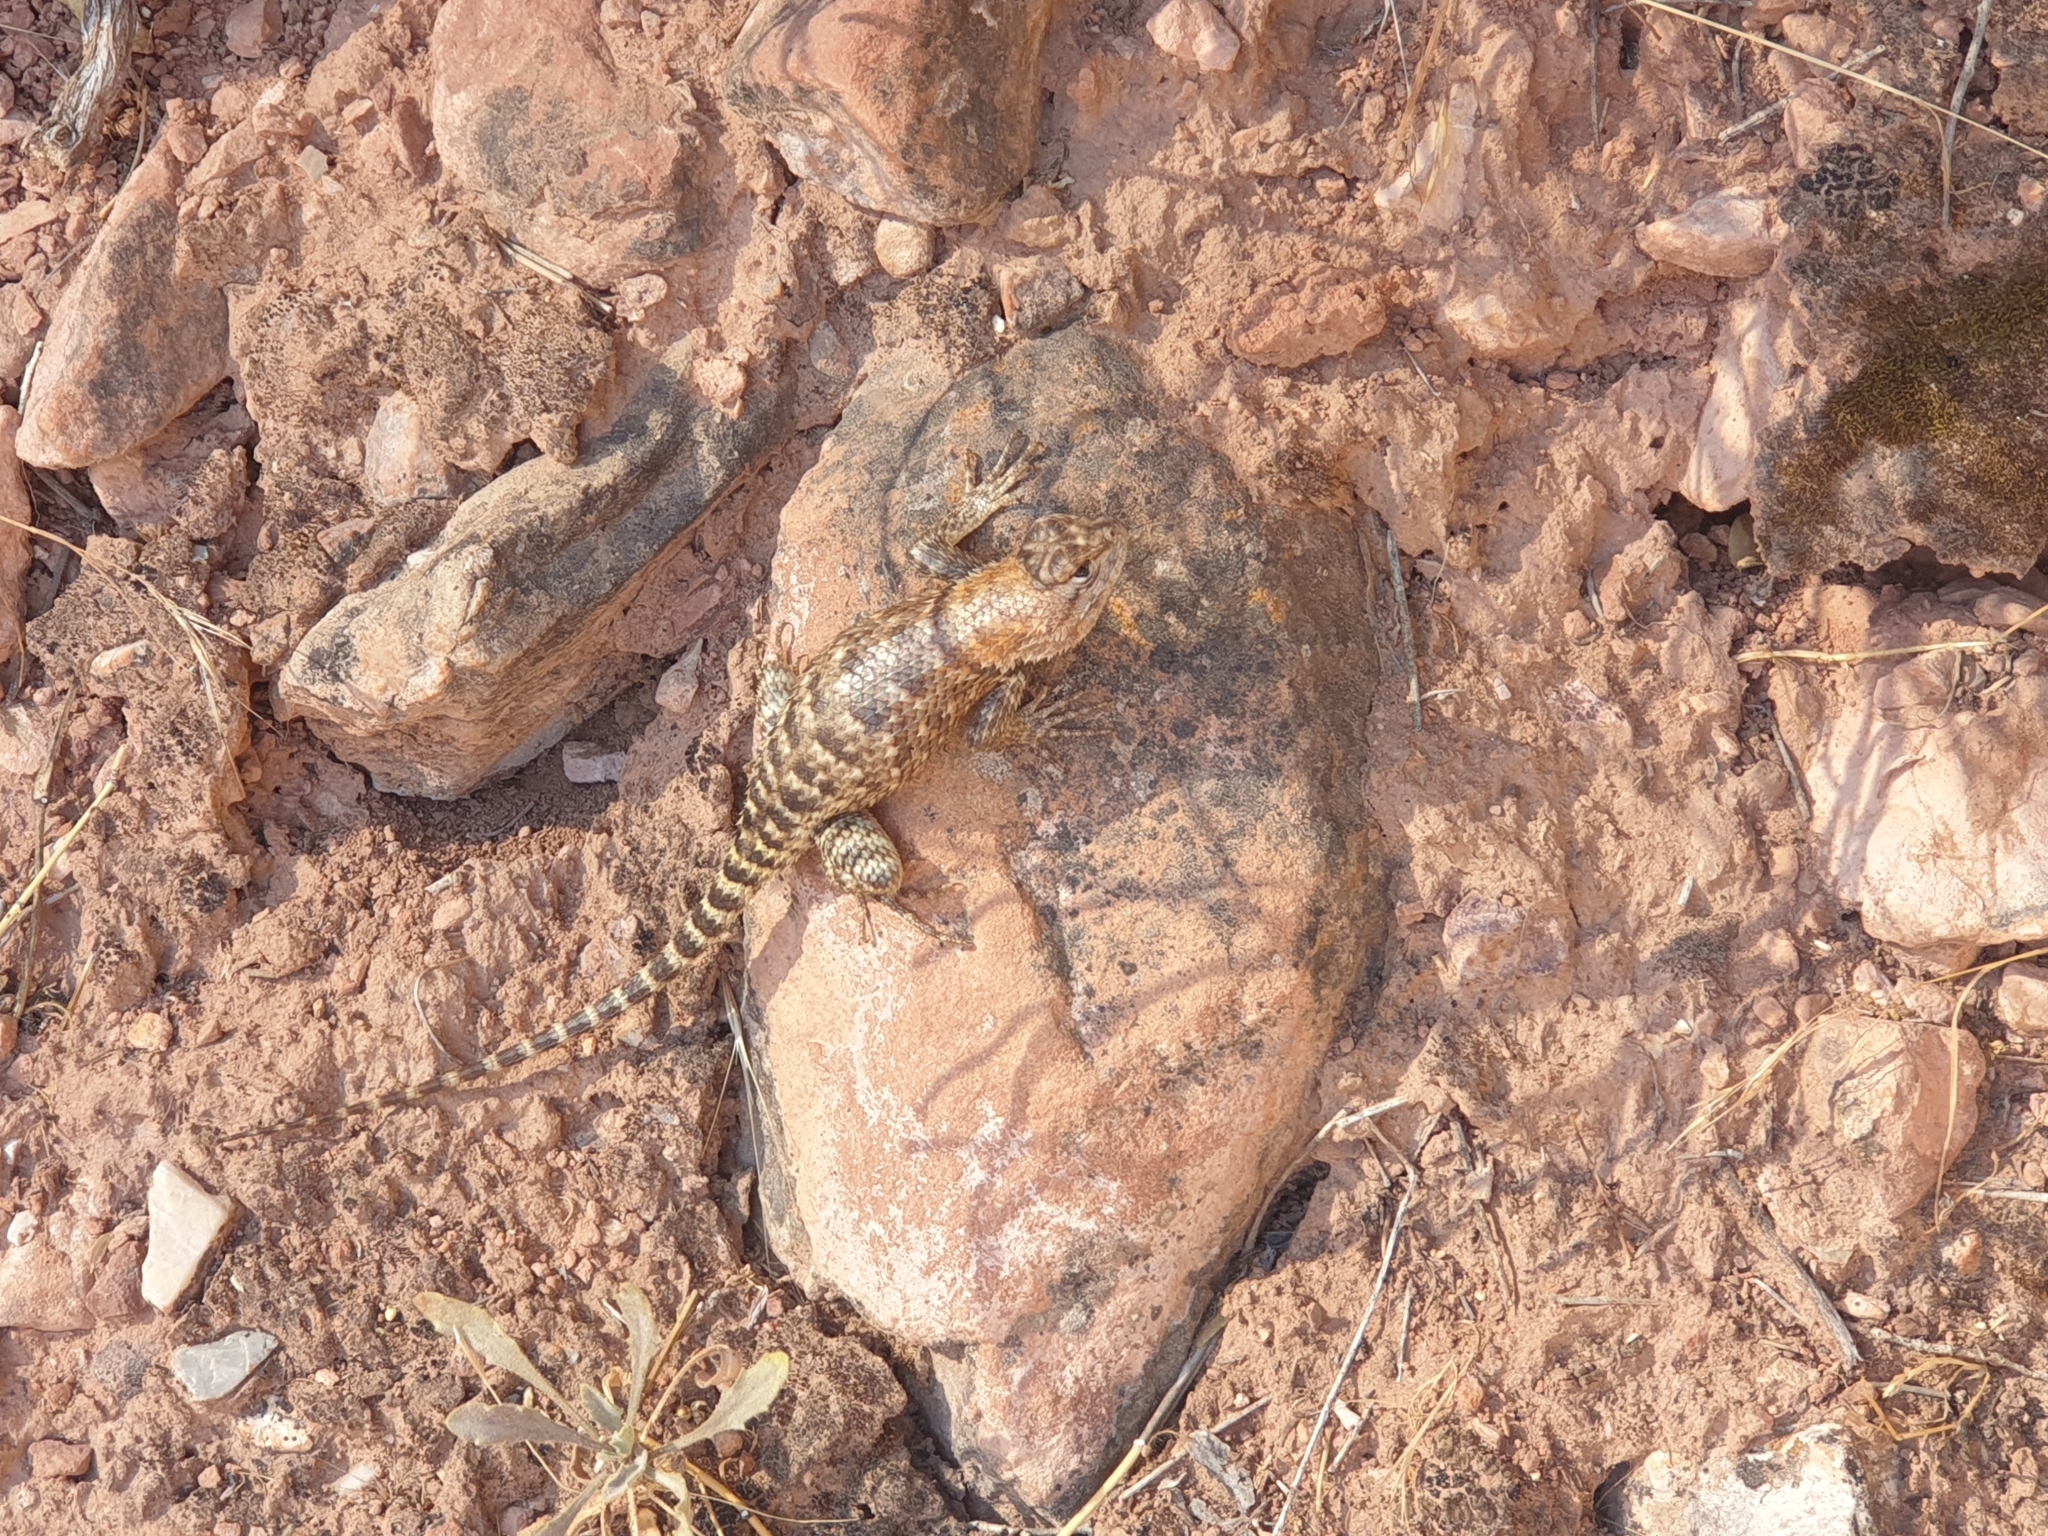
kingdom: Animalia
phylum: Chordata
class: Squamata
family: Phrynosomatidae
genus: Sceloporus
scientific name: Sceloporus magister
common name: Desert spiny lizard
